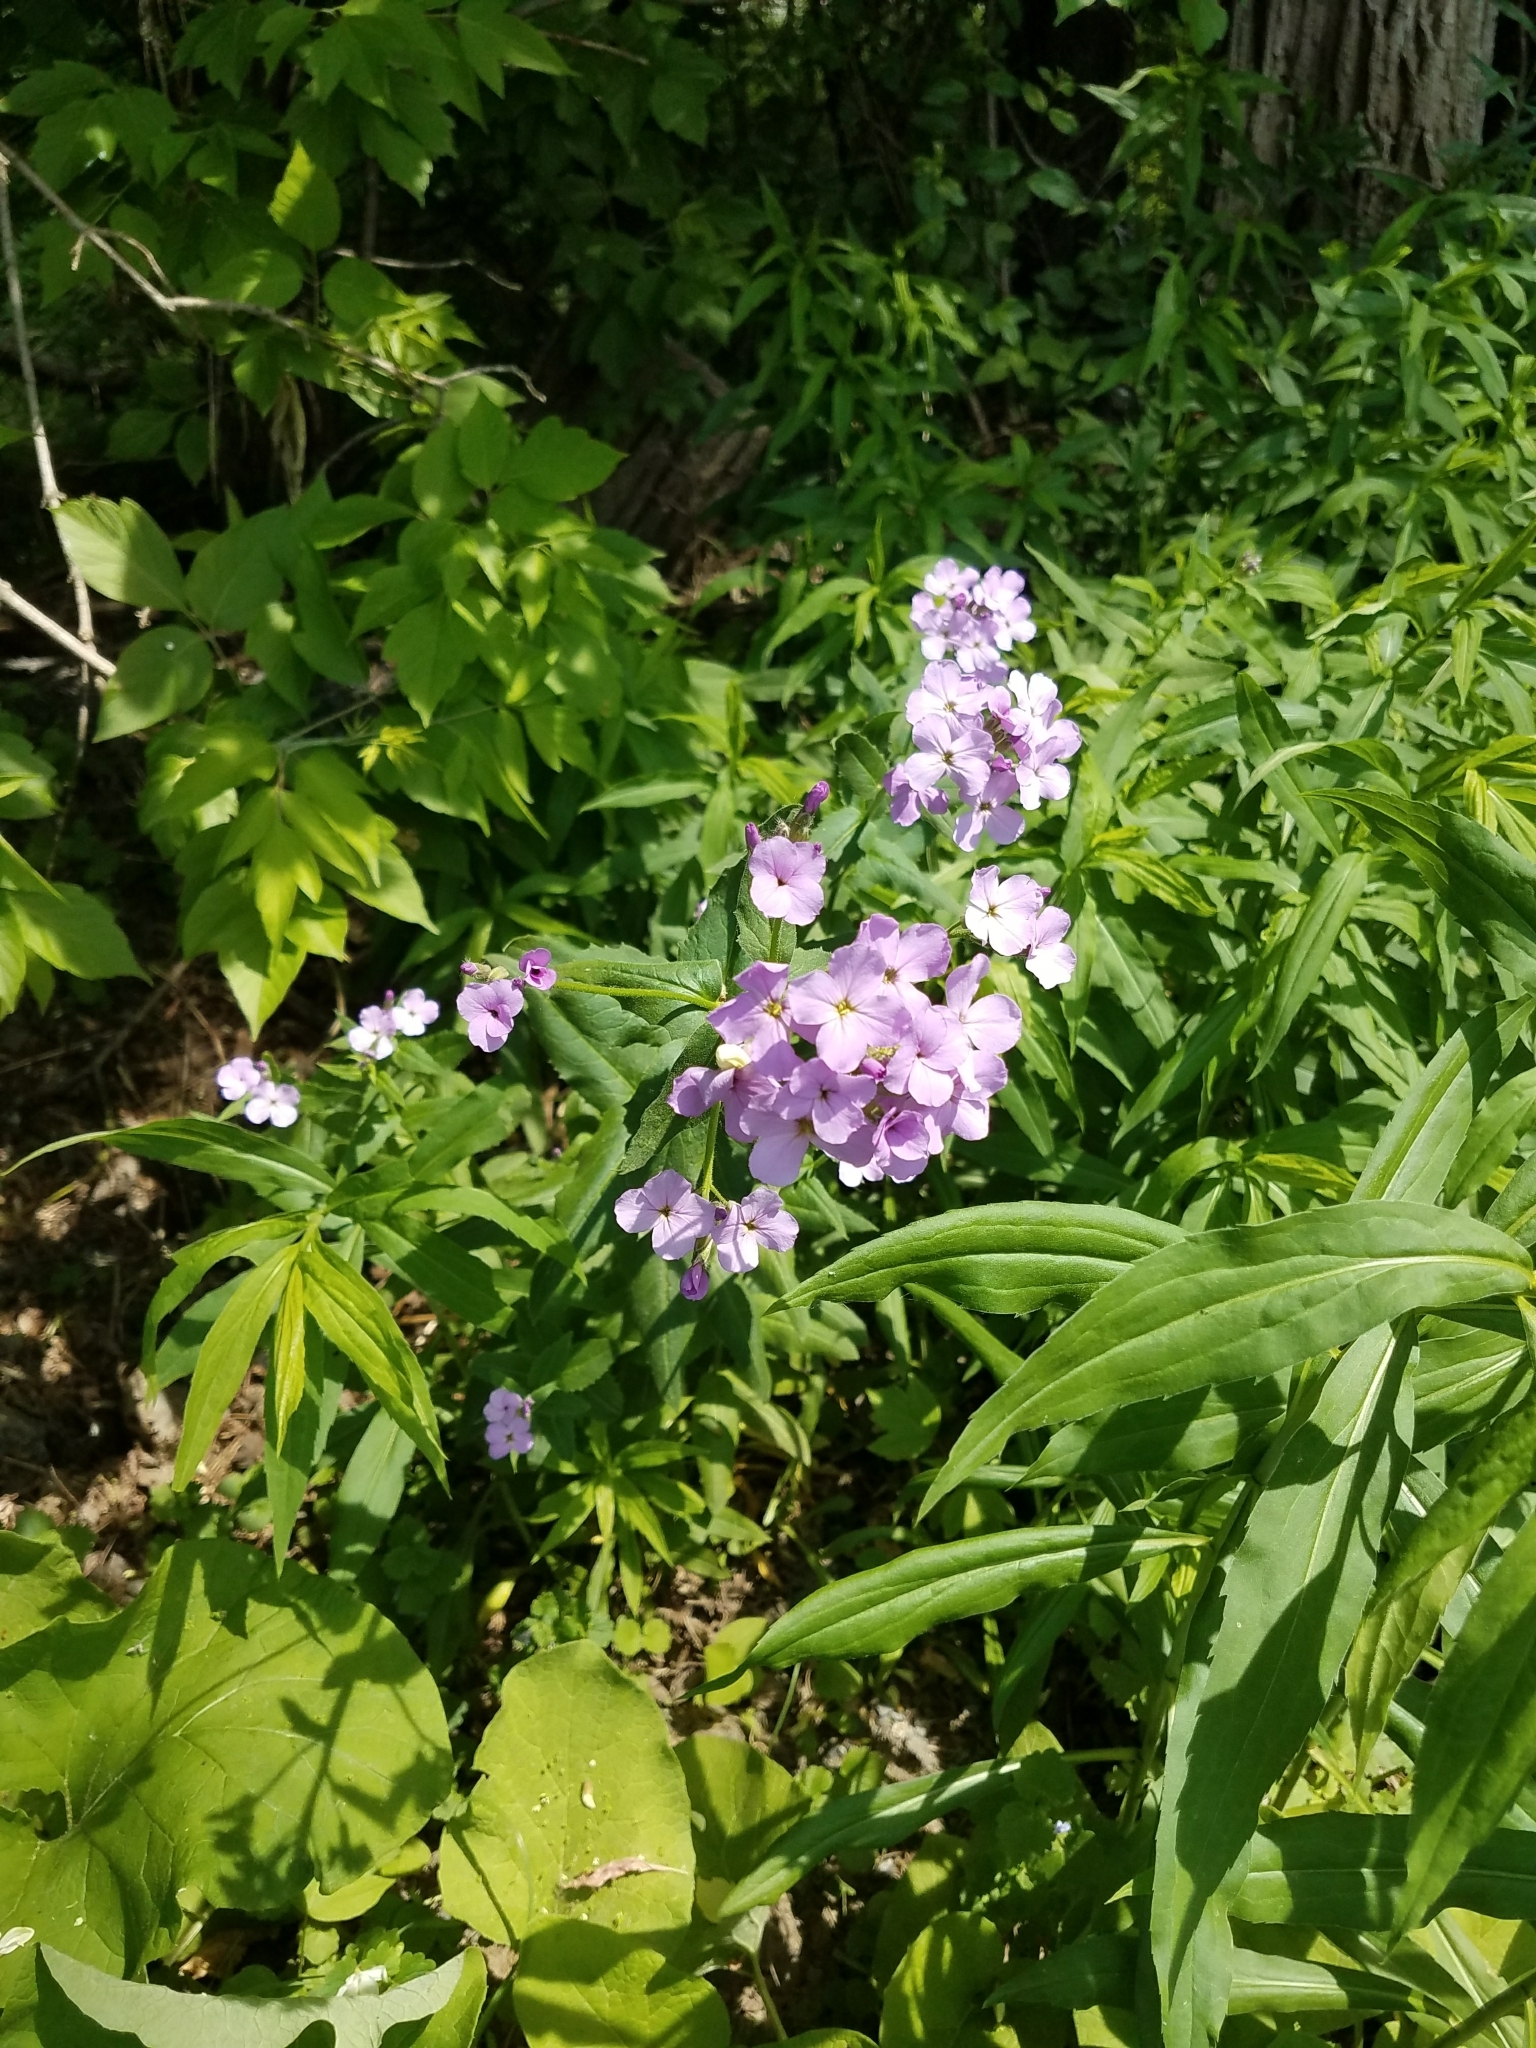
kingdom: Plantae
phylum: Tracheophyta
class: Magnoliopsida
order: Brassicales
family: Brassicaceae
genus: Hesperis
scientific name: Hesperis matronalis
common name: Dame's-violet
